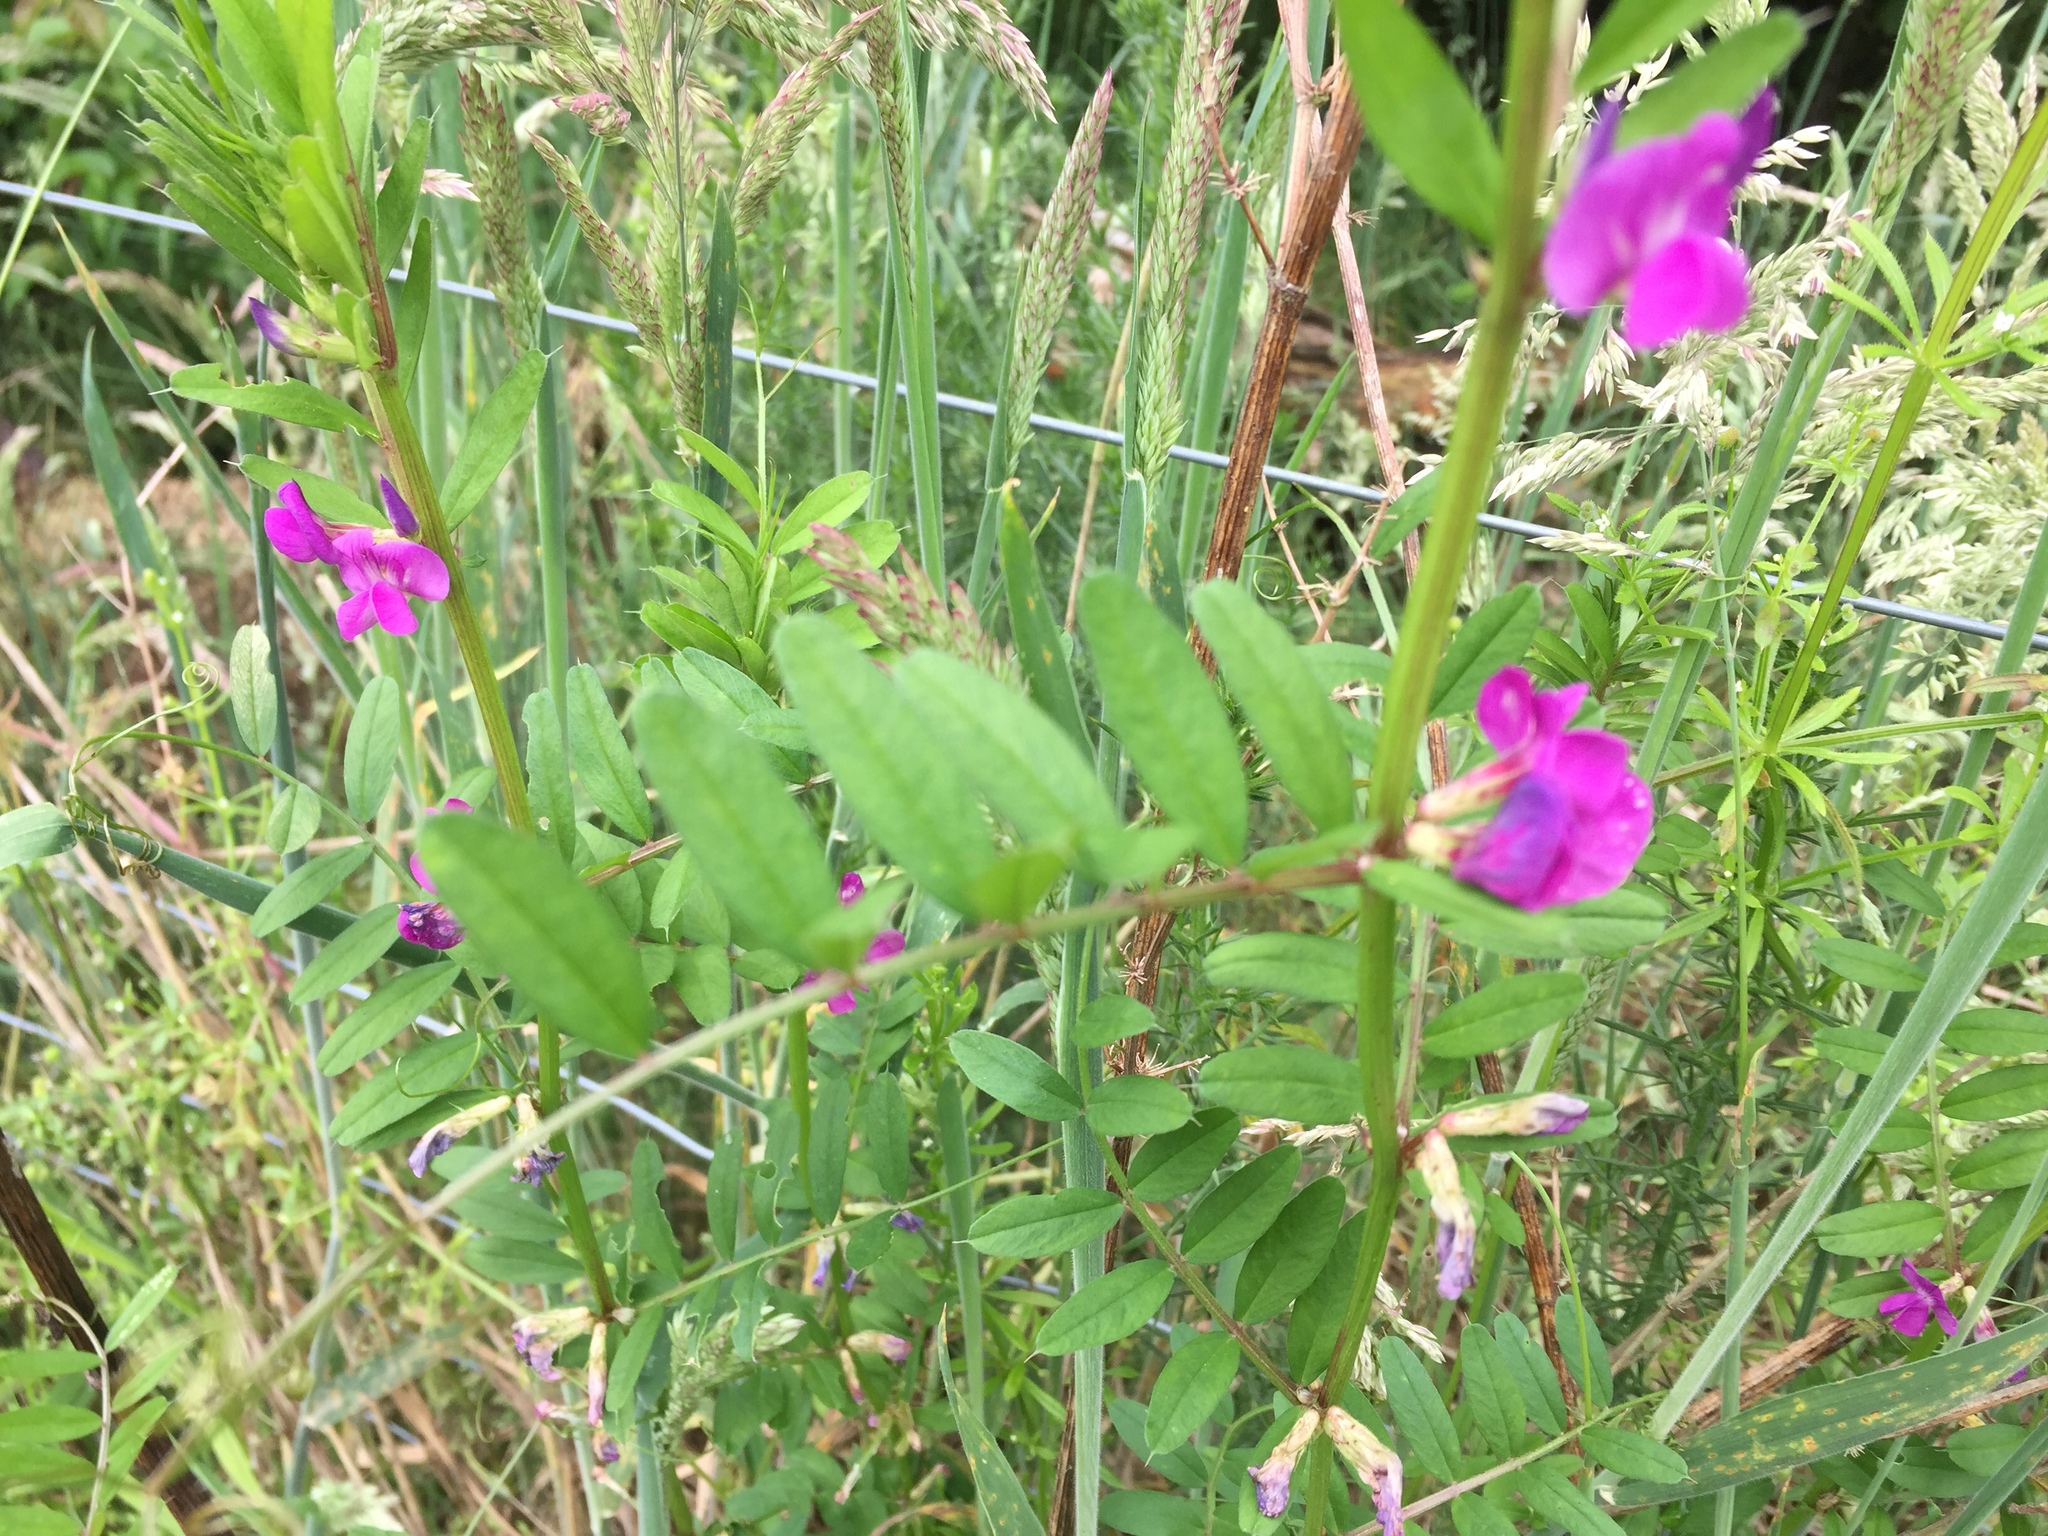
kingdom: Plantae
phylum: Tracheophyta
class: Magnoliopsida
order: Fabales
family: Fabaceae
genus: Vicia
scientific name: Vicia sativa
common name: Garden vetch
